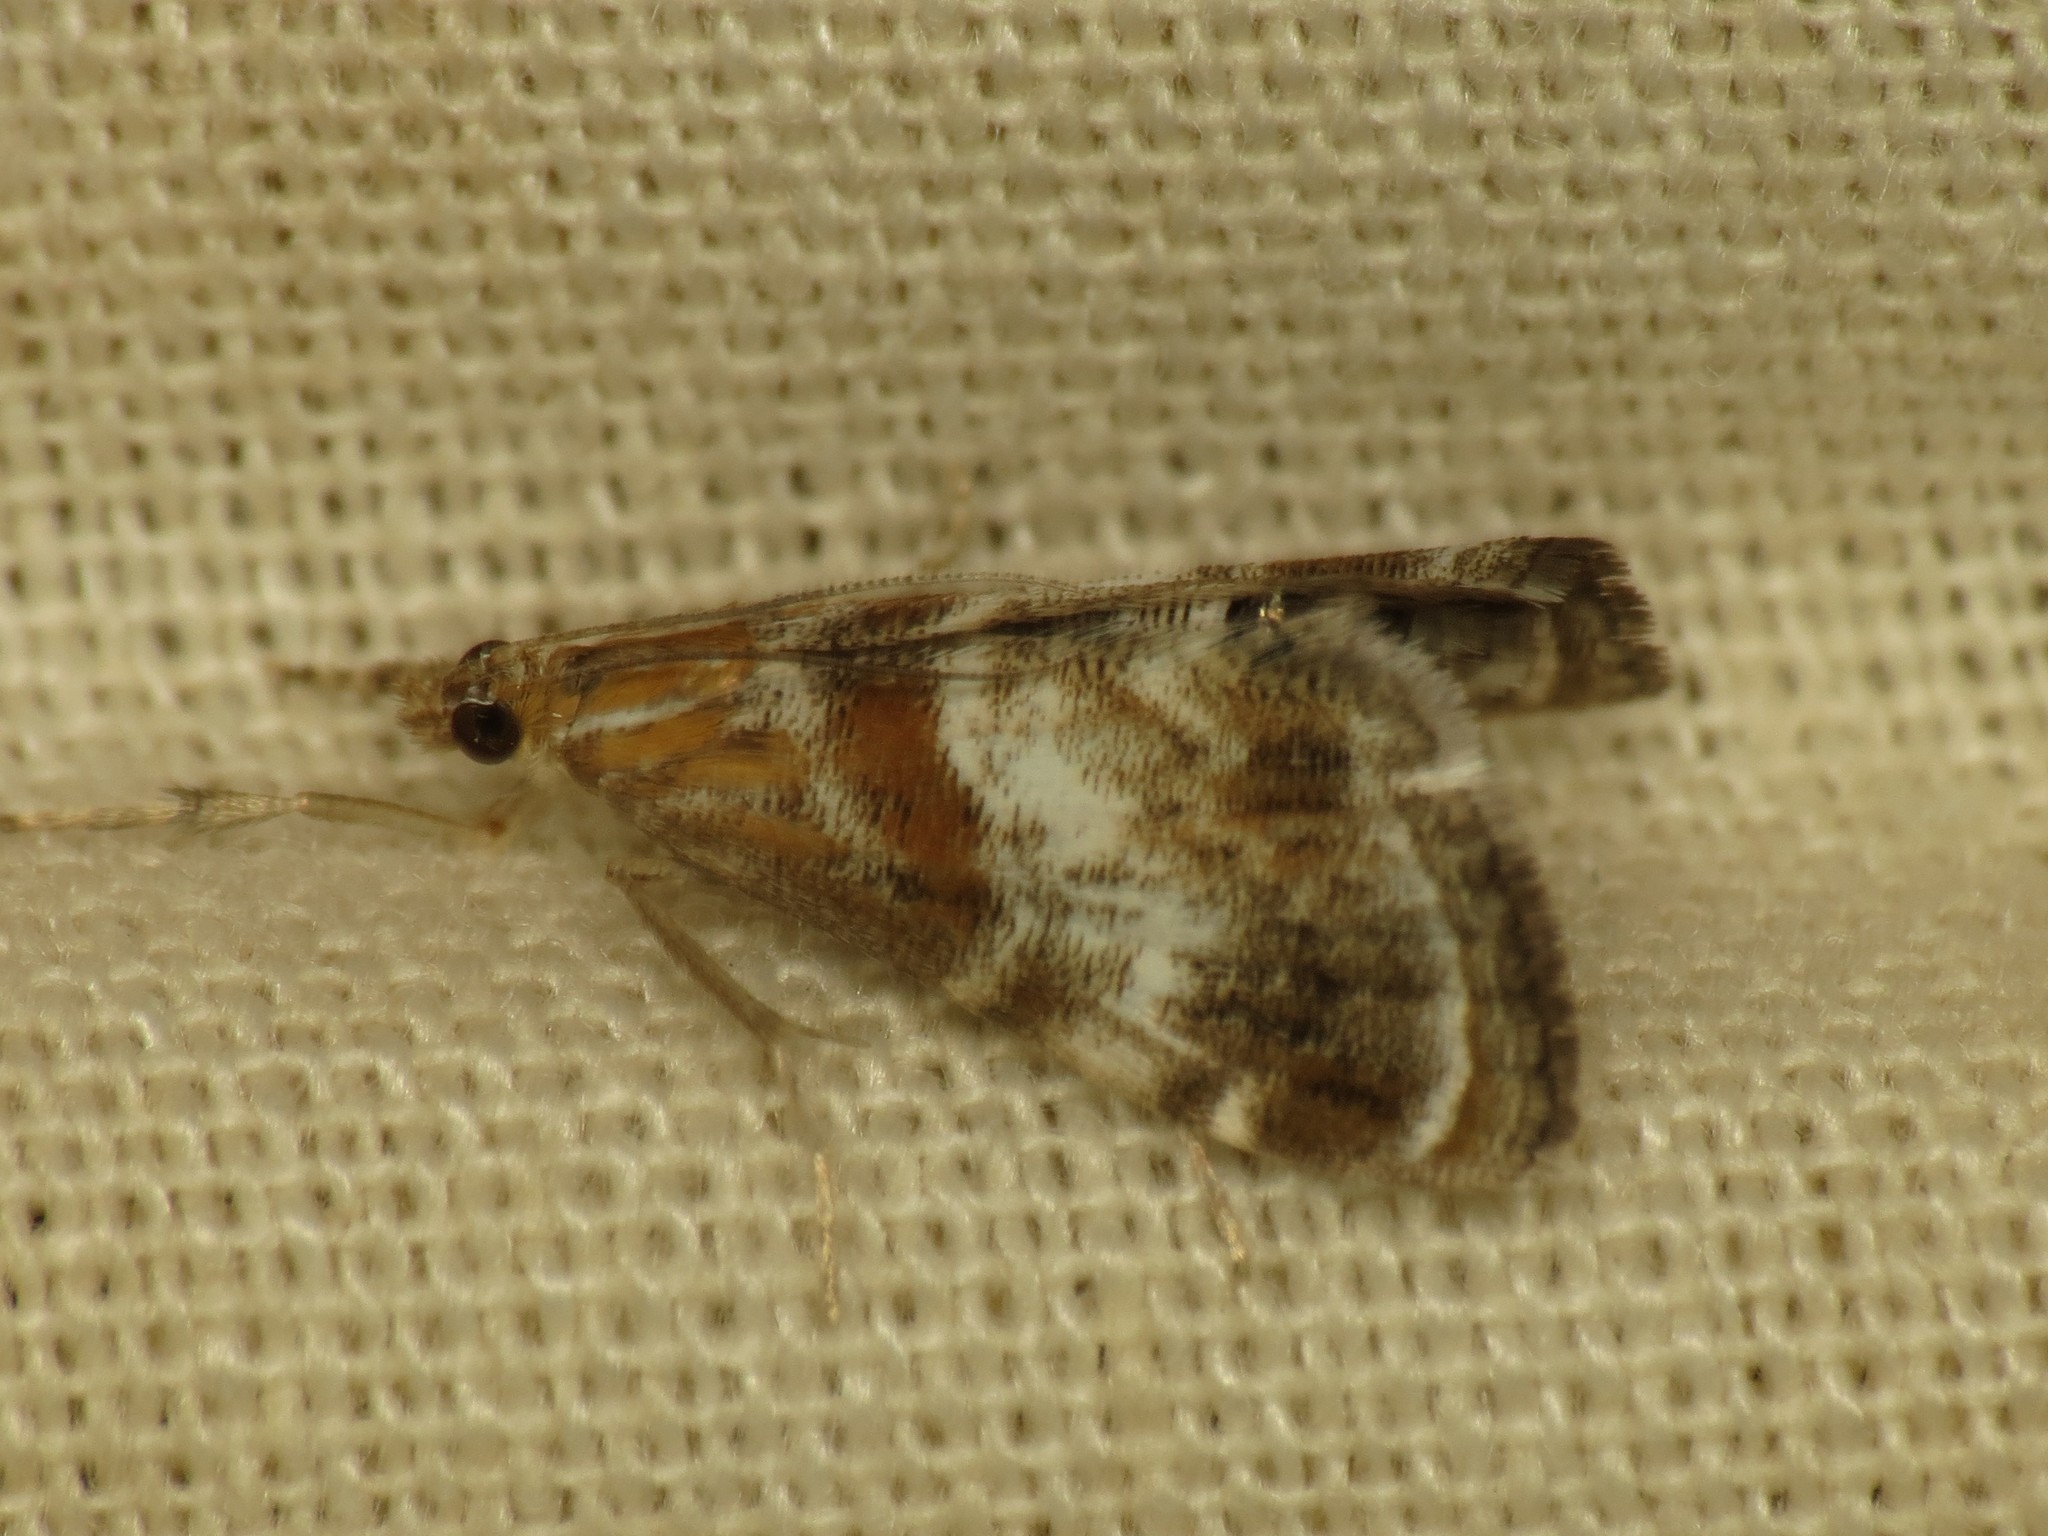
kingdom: Animalia
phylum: Arthropoda
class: Insecta
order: Lepidoptera
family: Crambidae
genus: Dicymolomia
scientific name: Dicymolomia metalliferalis
